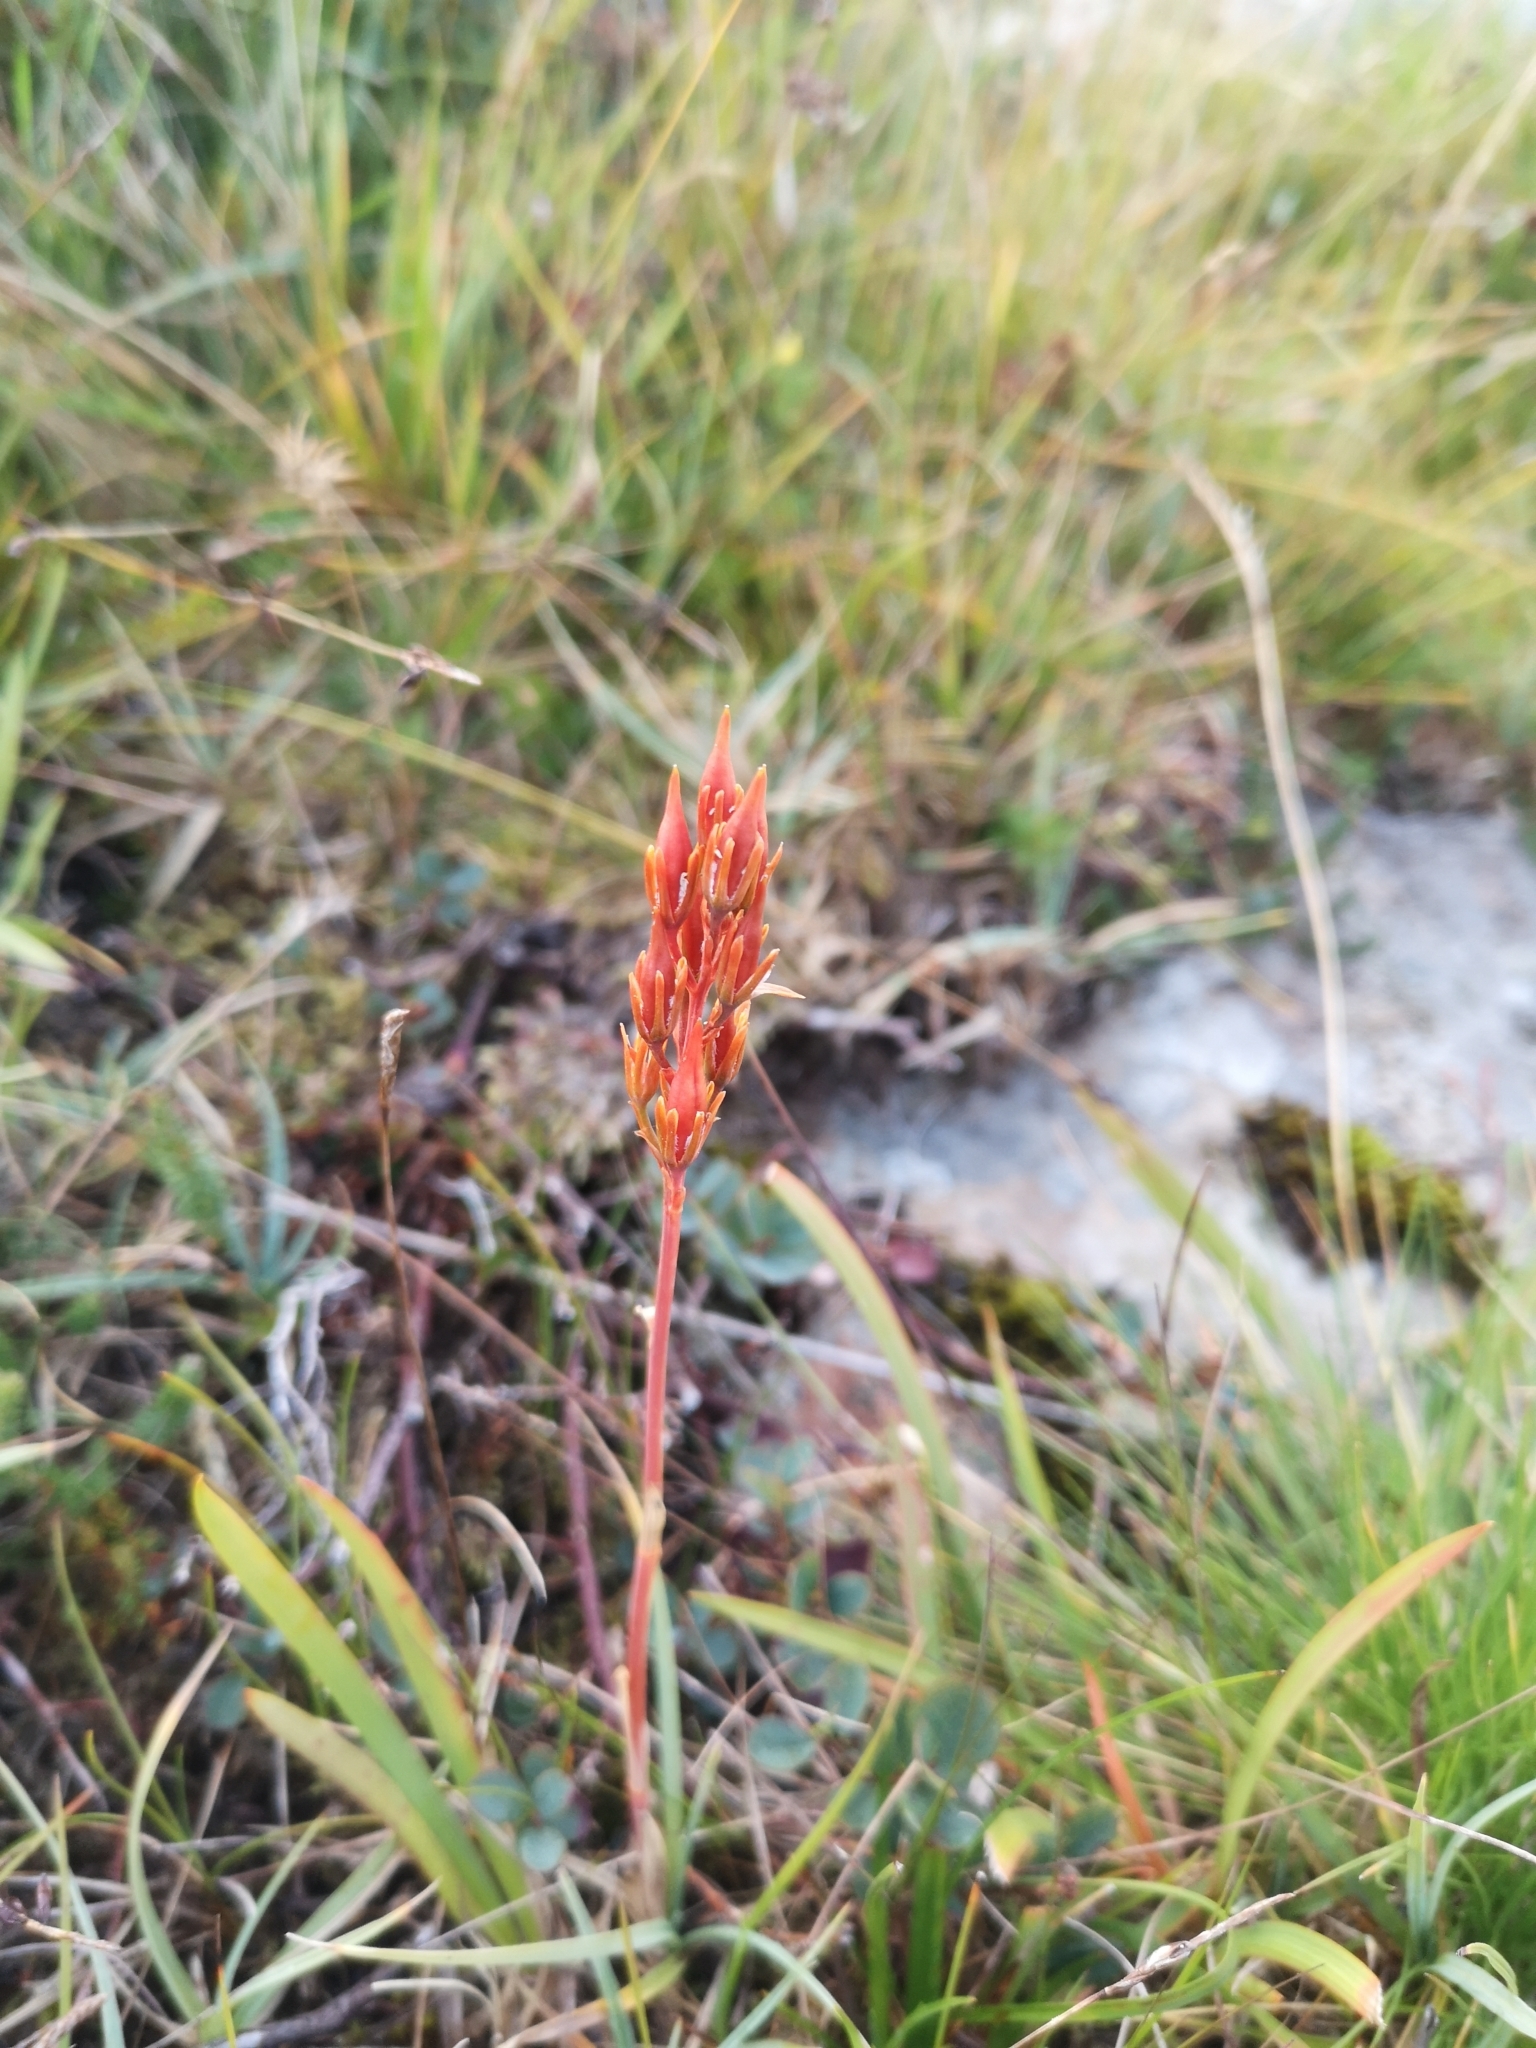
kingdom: Plantae
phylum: Tracheophyta
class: Liliopsida
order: Dioscoreales
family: Nartheciaceae
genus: Narthecium
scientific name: Narthecium ossifragum
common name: Bog asphodel
